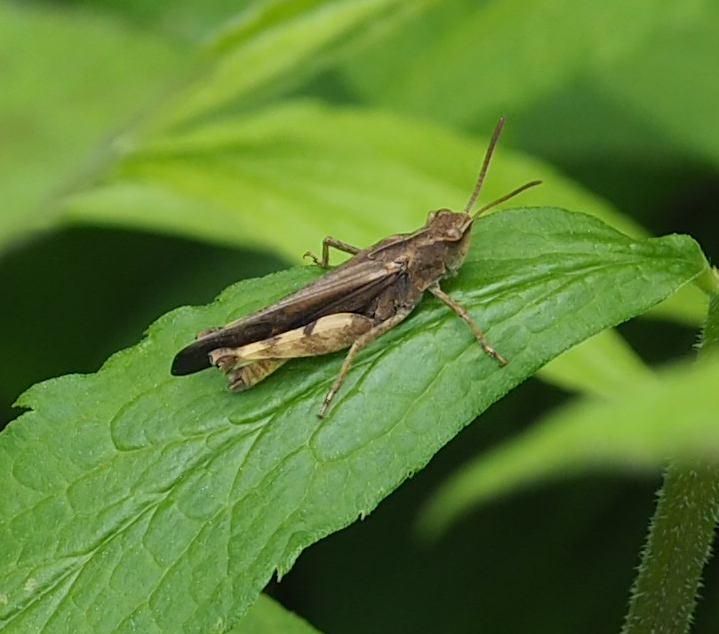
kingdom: Animalia
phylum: Arthropoda
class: Insecta
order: Orthoptera
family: Acrididae
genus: Chortophaga
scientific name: Chortophaga viridifasciata
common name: Green-striped grasshopper
